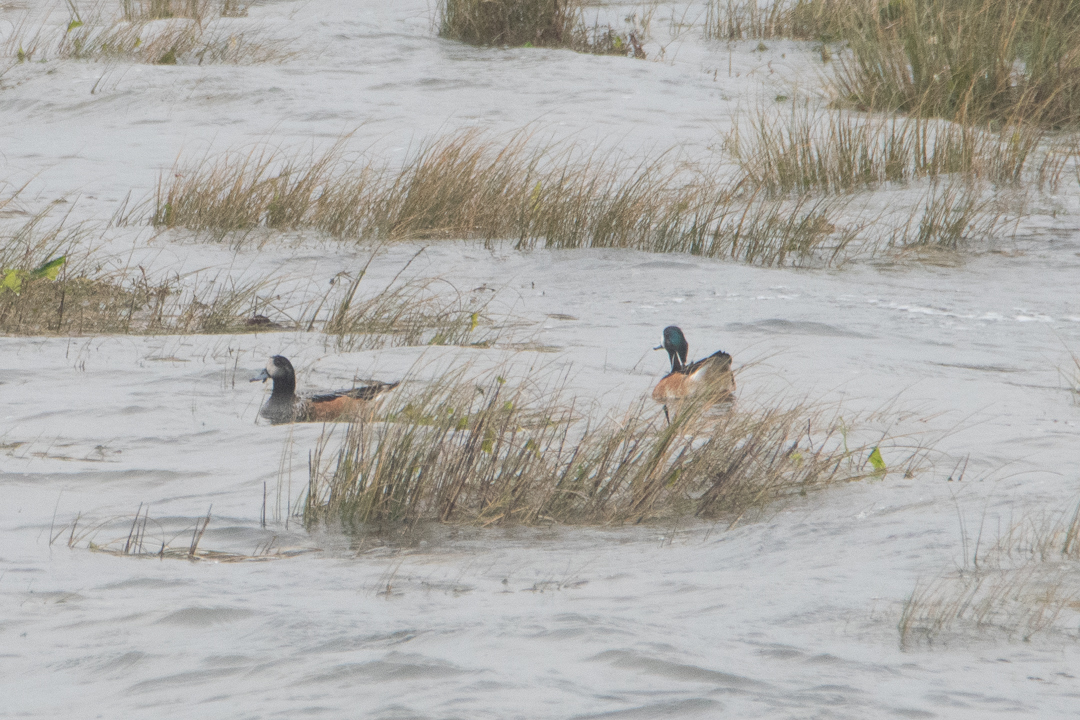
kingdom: Animalia
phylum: Chordata
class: Aves
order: Anseriformes
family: Anatidae
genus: Mareca
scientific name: Mareca sibilatrix
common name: Chiloe wigeon
